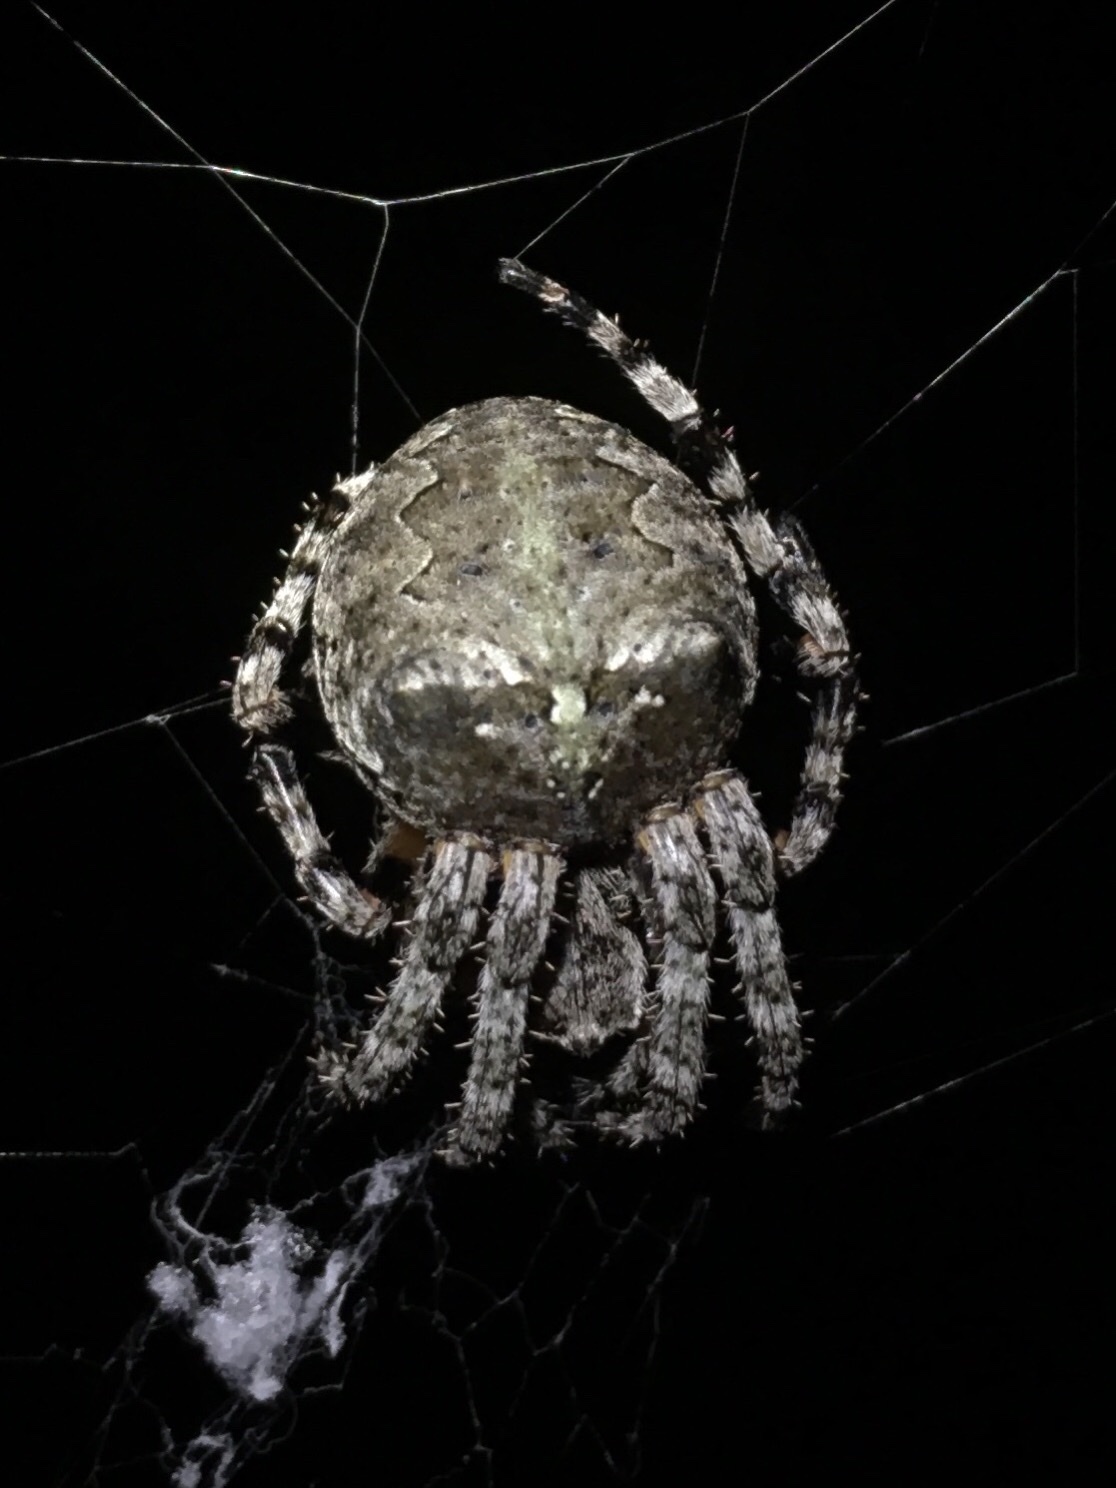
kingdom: Animalia
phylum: Arthropoda
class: Arachnida
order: Araneae
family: Araneidae
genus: Araneus
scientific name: Araneus bicentenarius
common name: Giant lichen orbweaver
